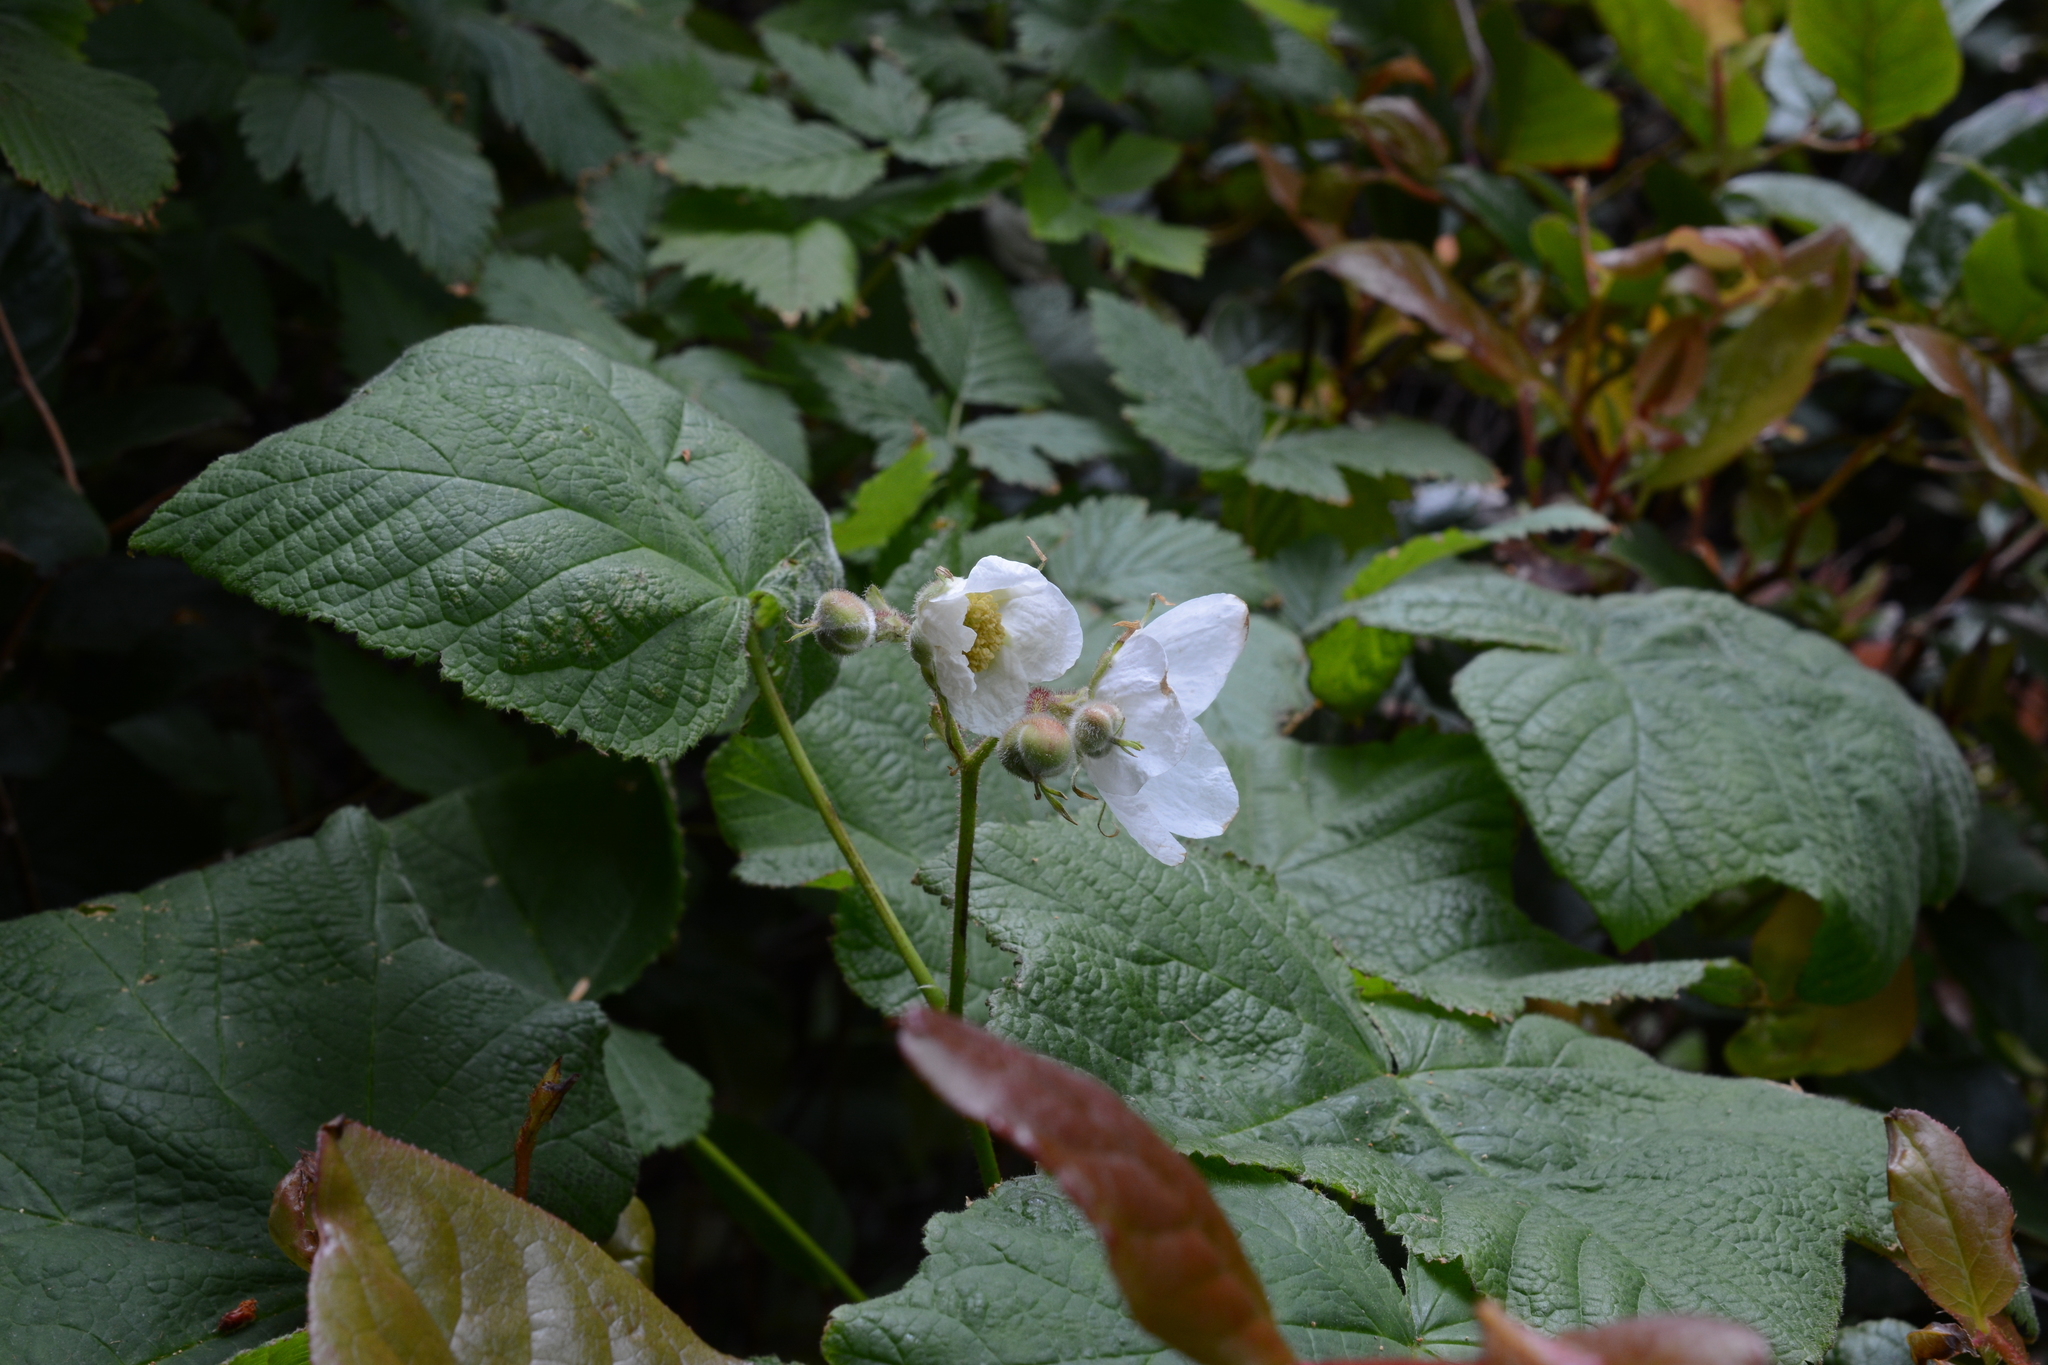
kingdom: Plantae
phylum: Tracheophyta
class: Magnoliopsida
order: Rosales
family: Rosaceae
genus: Rubus
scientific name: Rubus parviflorus
